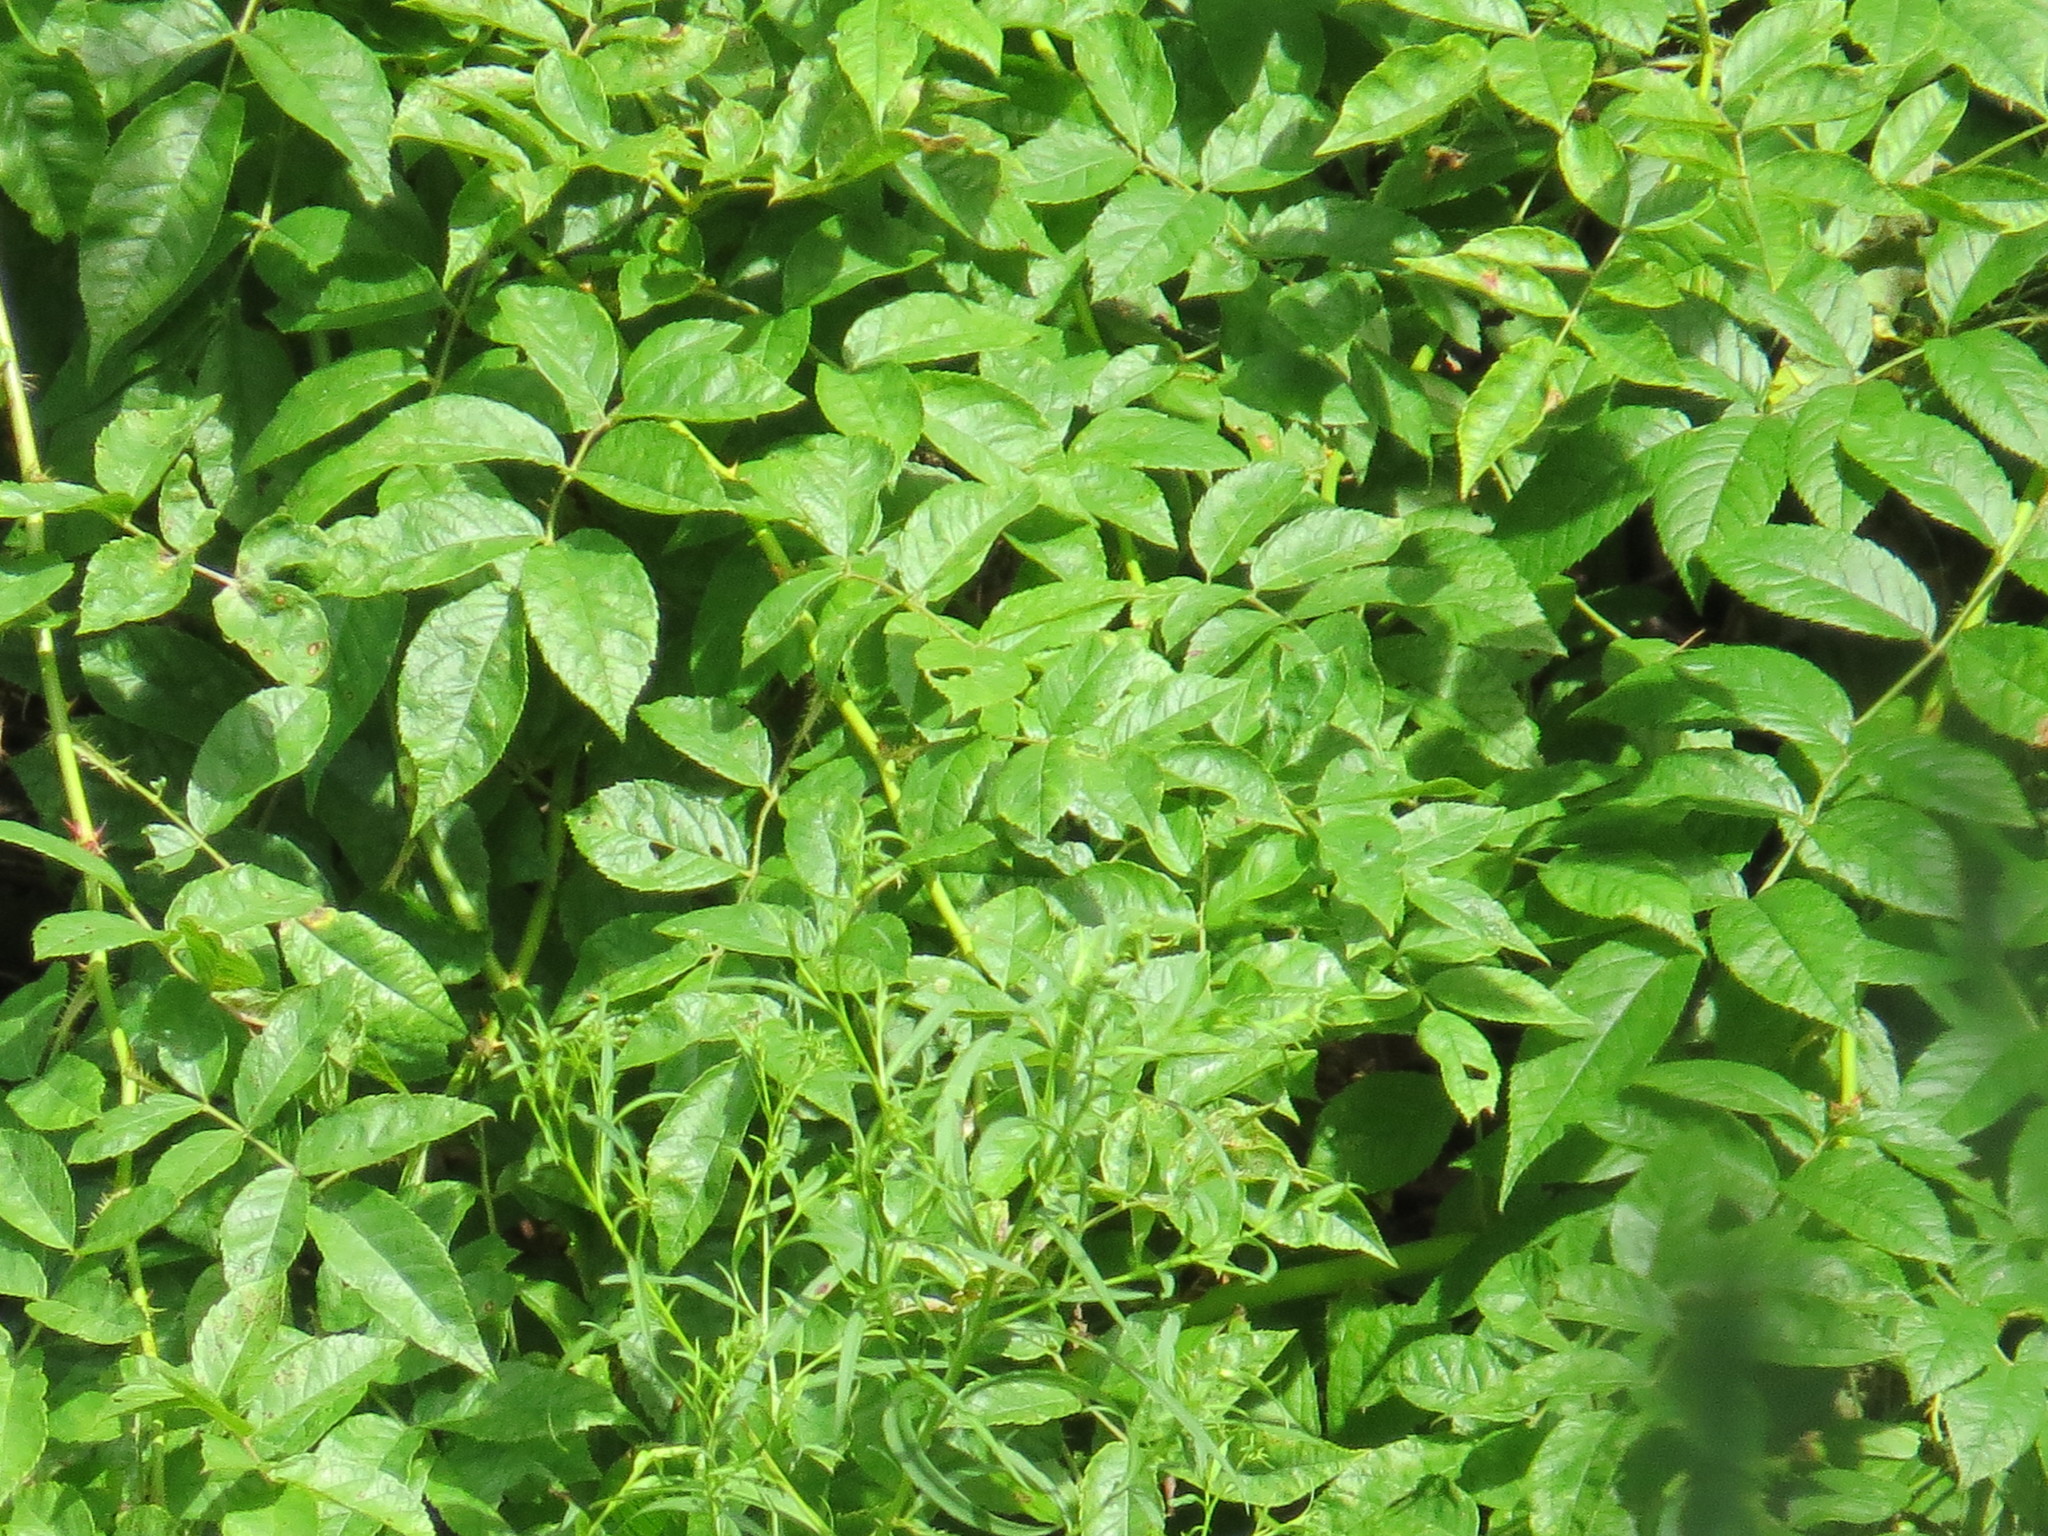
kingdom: Plantae
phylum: Tracheophyta
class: Magnoliopsida
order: Asterales
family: Asteraceae
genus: Eupatorium
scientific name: Eupatorium perfoliatum
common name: Boneset
